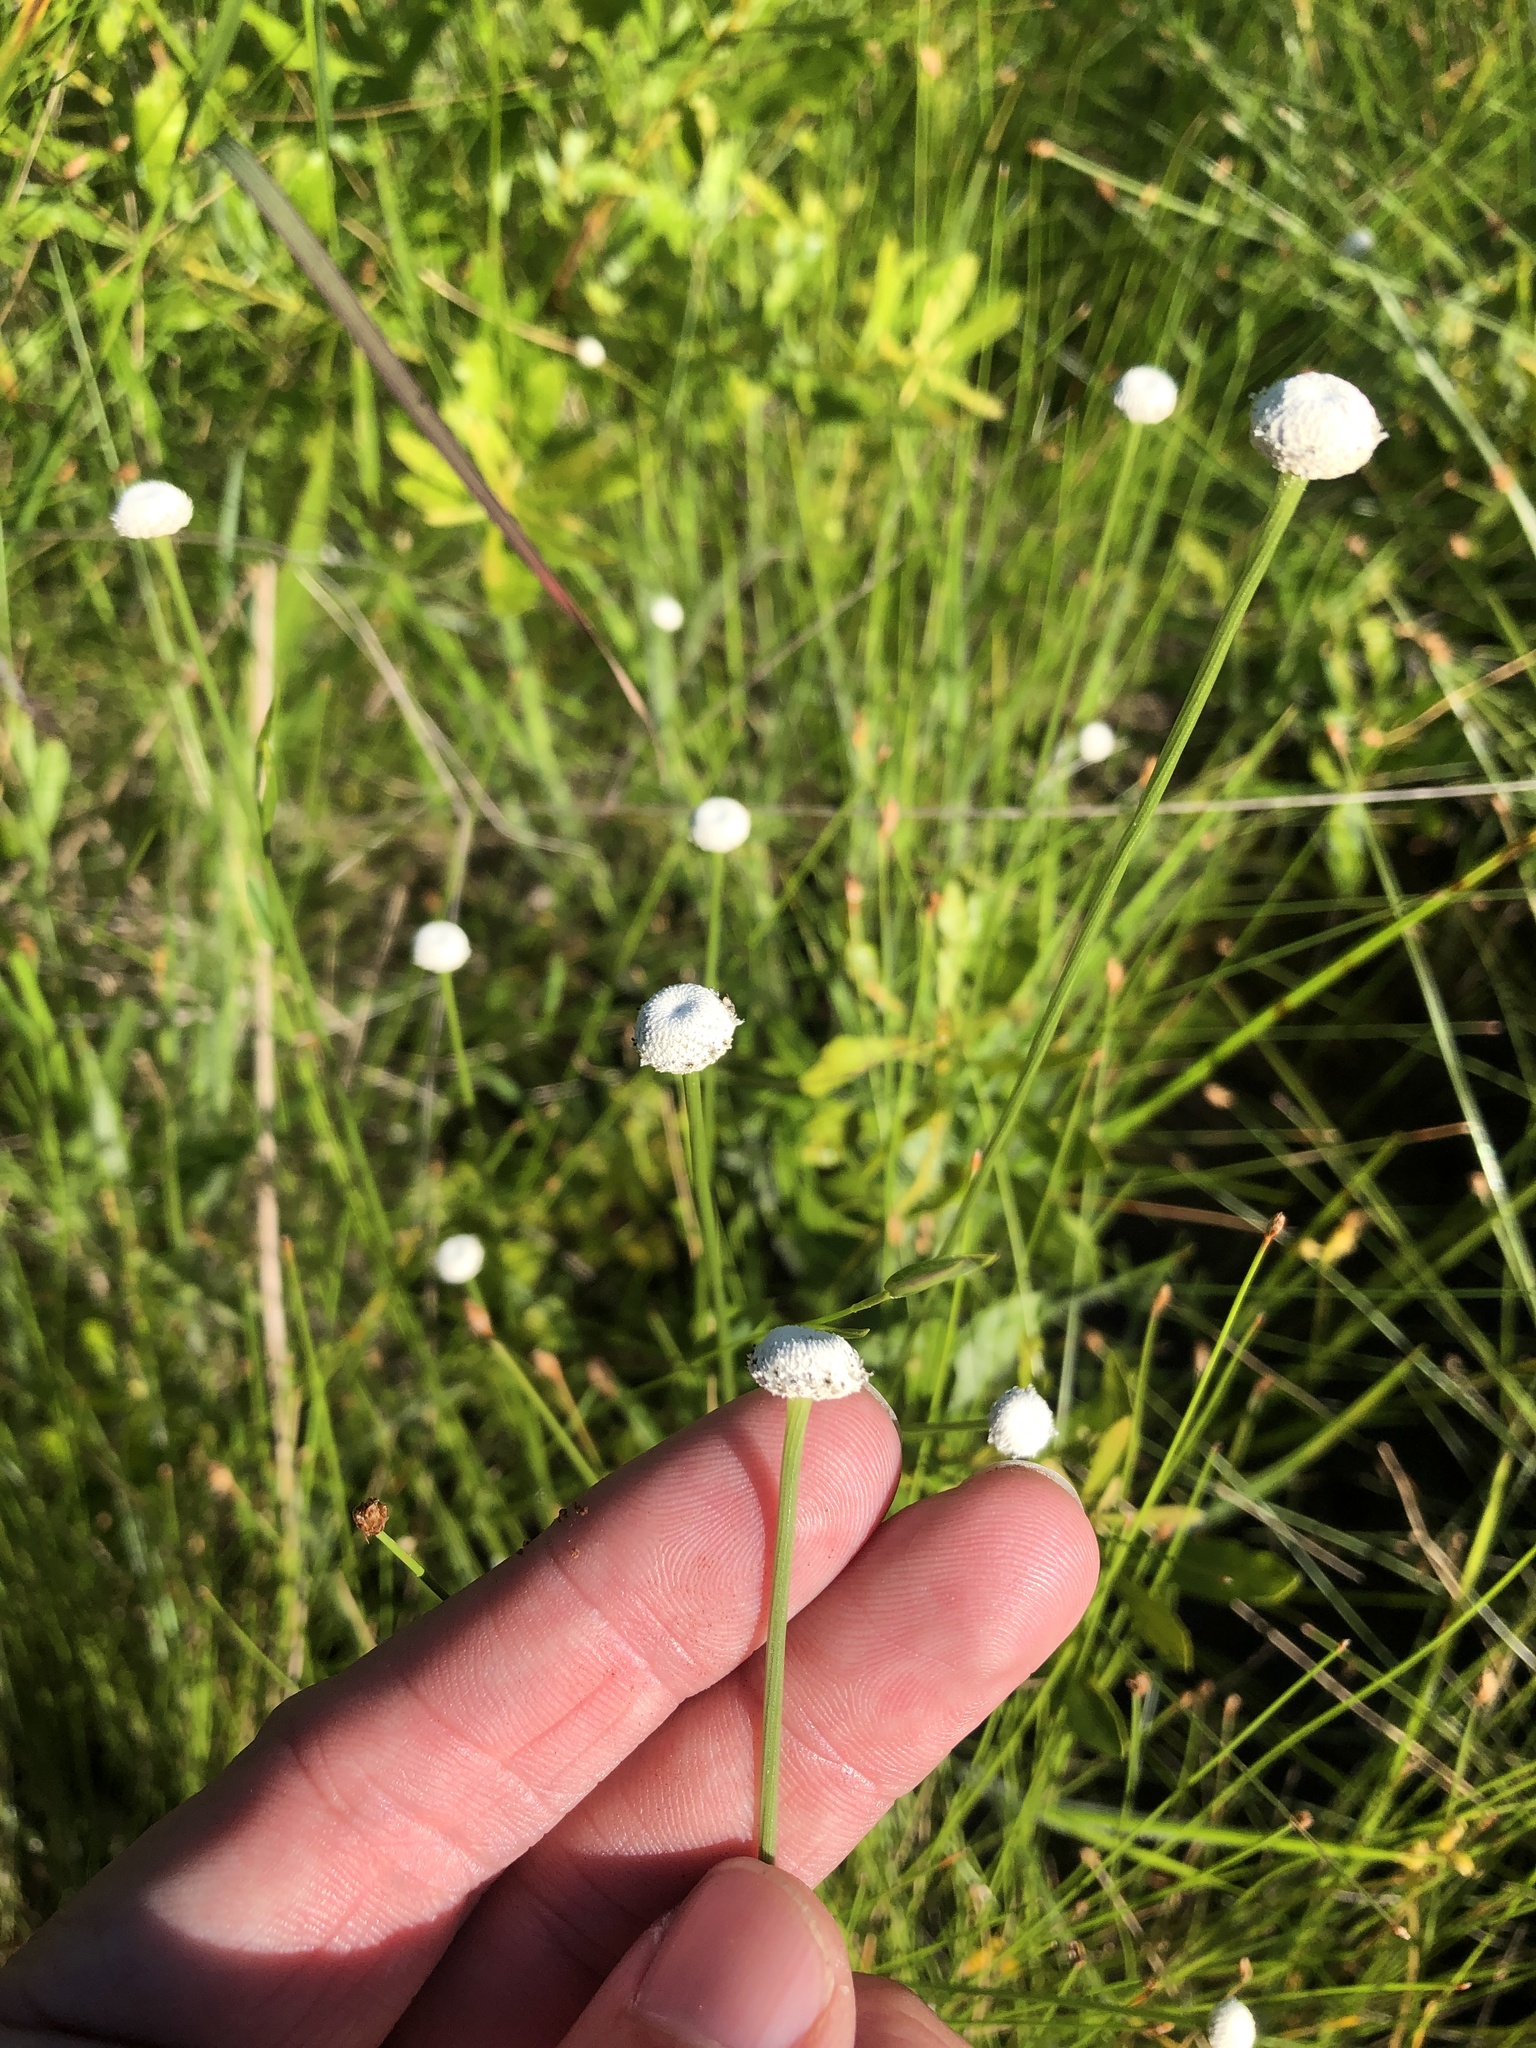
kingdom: Plantae
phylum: Tracheophyta
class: Liliopsida
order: Poales
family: Eriocaulaceae
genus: Eriocaulon
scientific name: Eriocaulon decangulare
